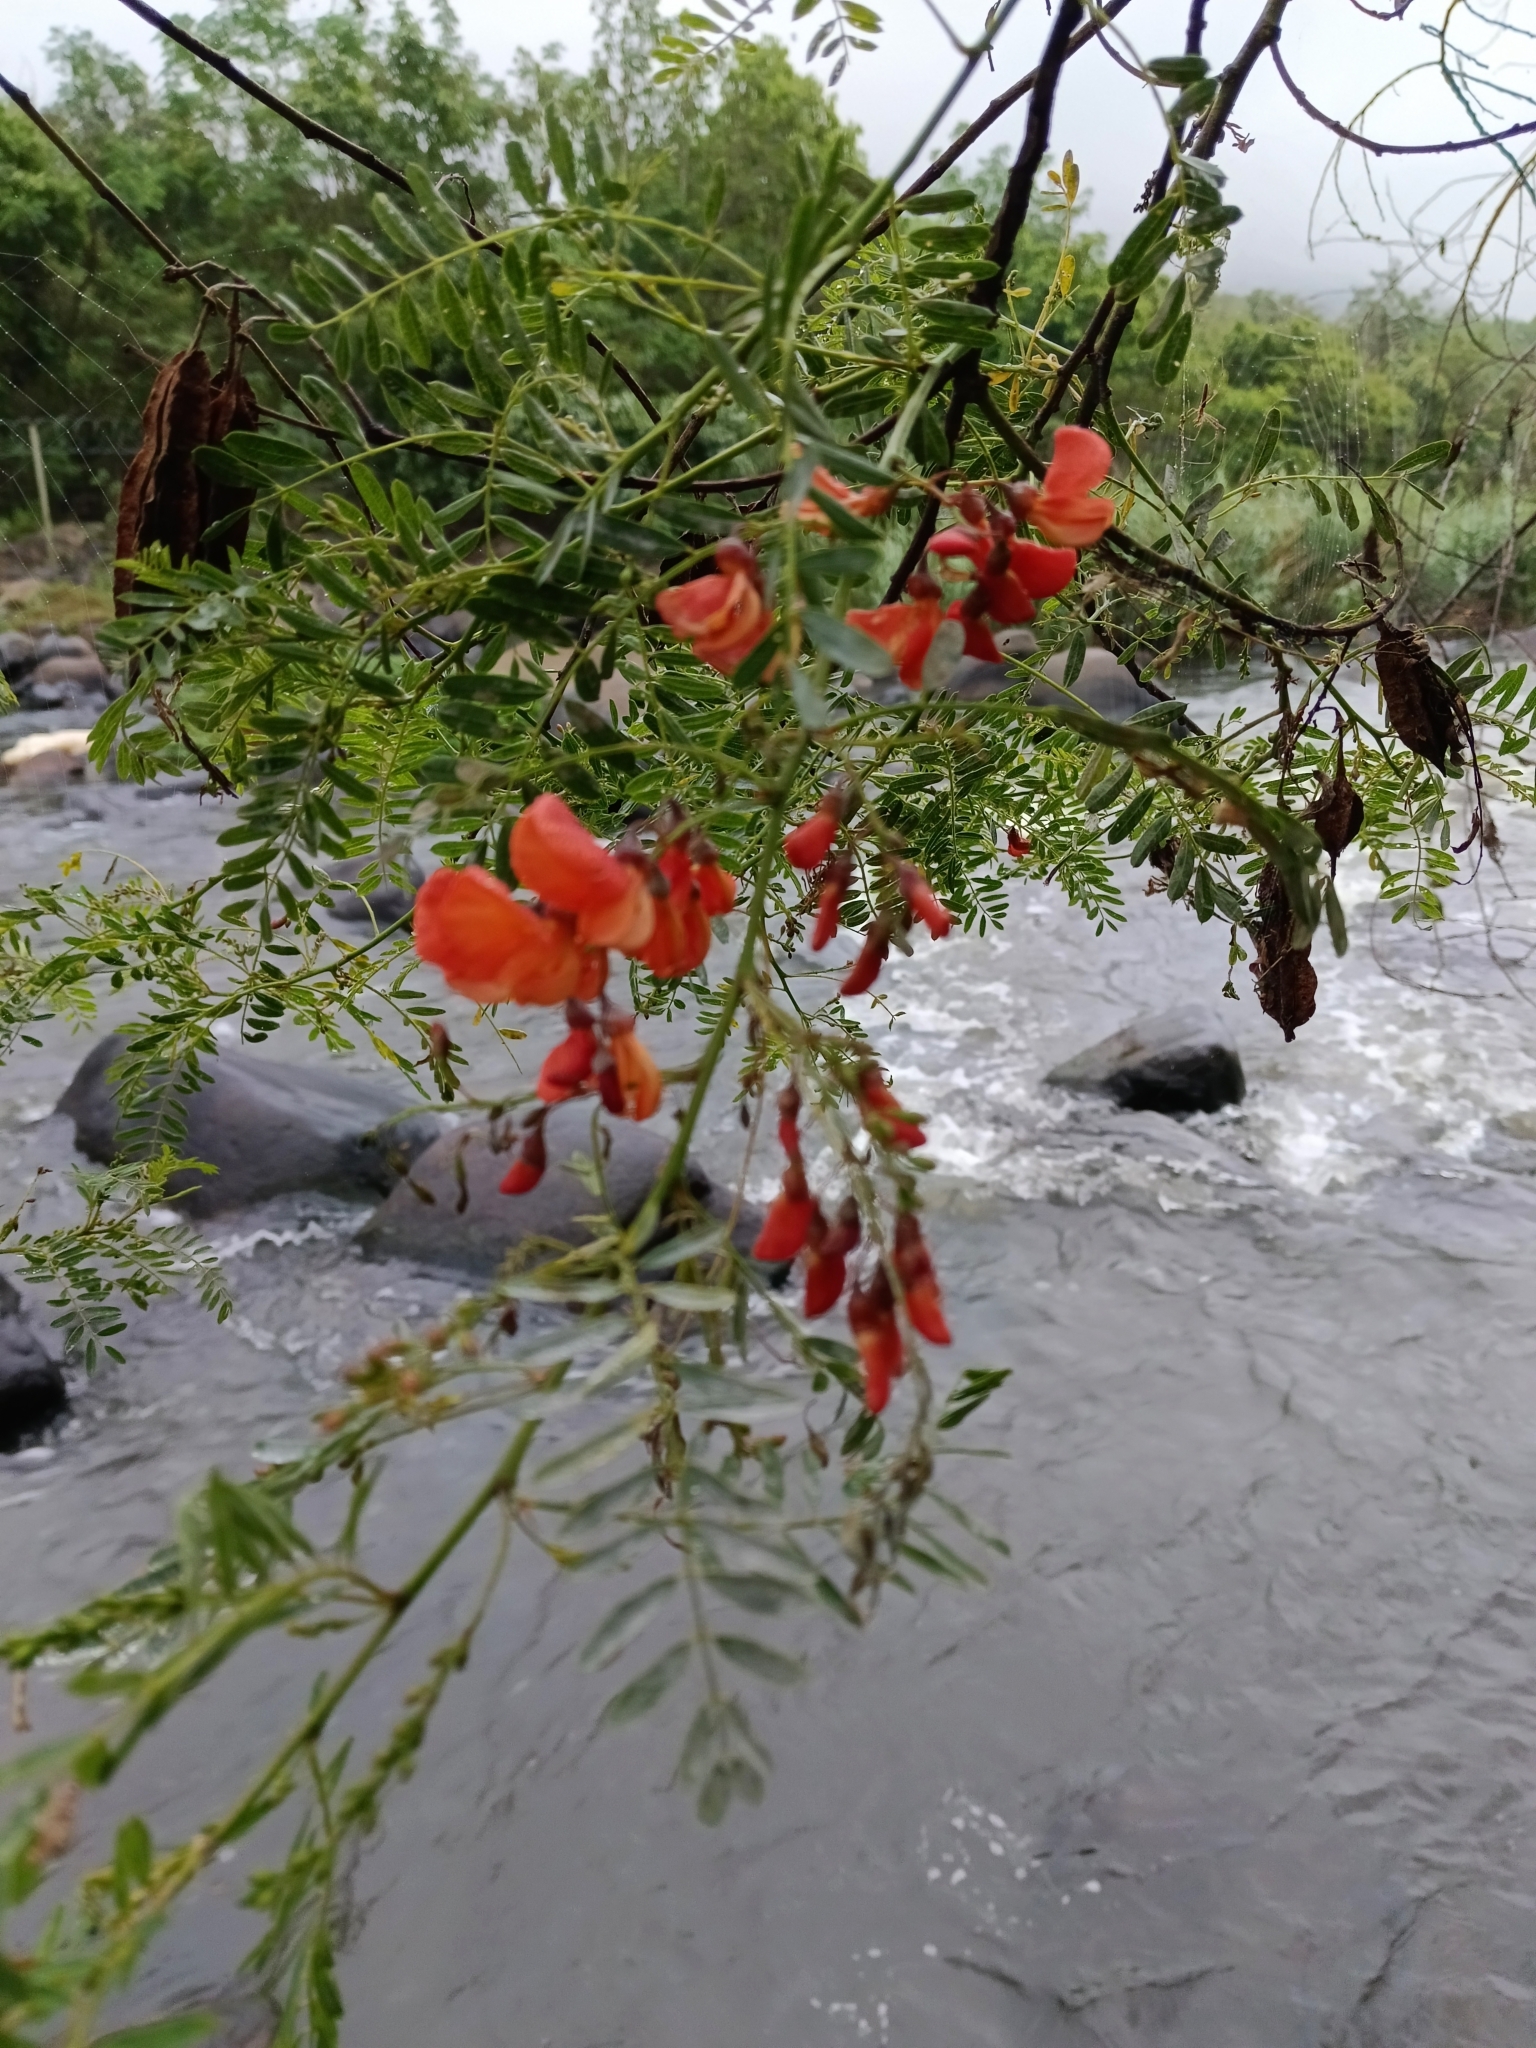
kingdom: Plantae
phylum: Tracheophyta
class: Magnoliopsida
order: Fabales
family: Fabaceae
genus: Sesbania
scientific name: Sesbania punicea
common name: Rattlebox
